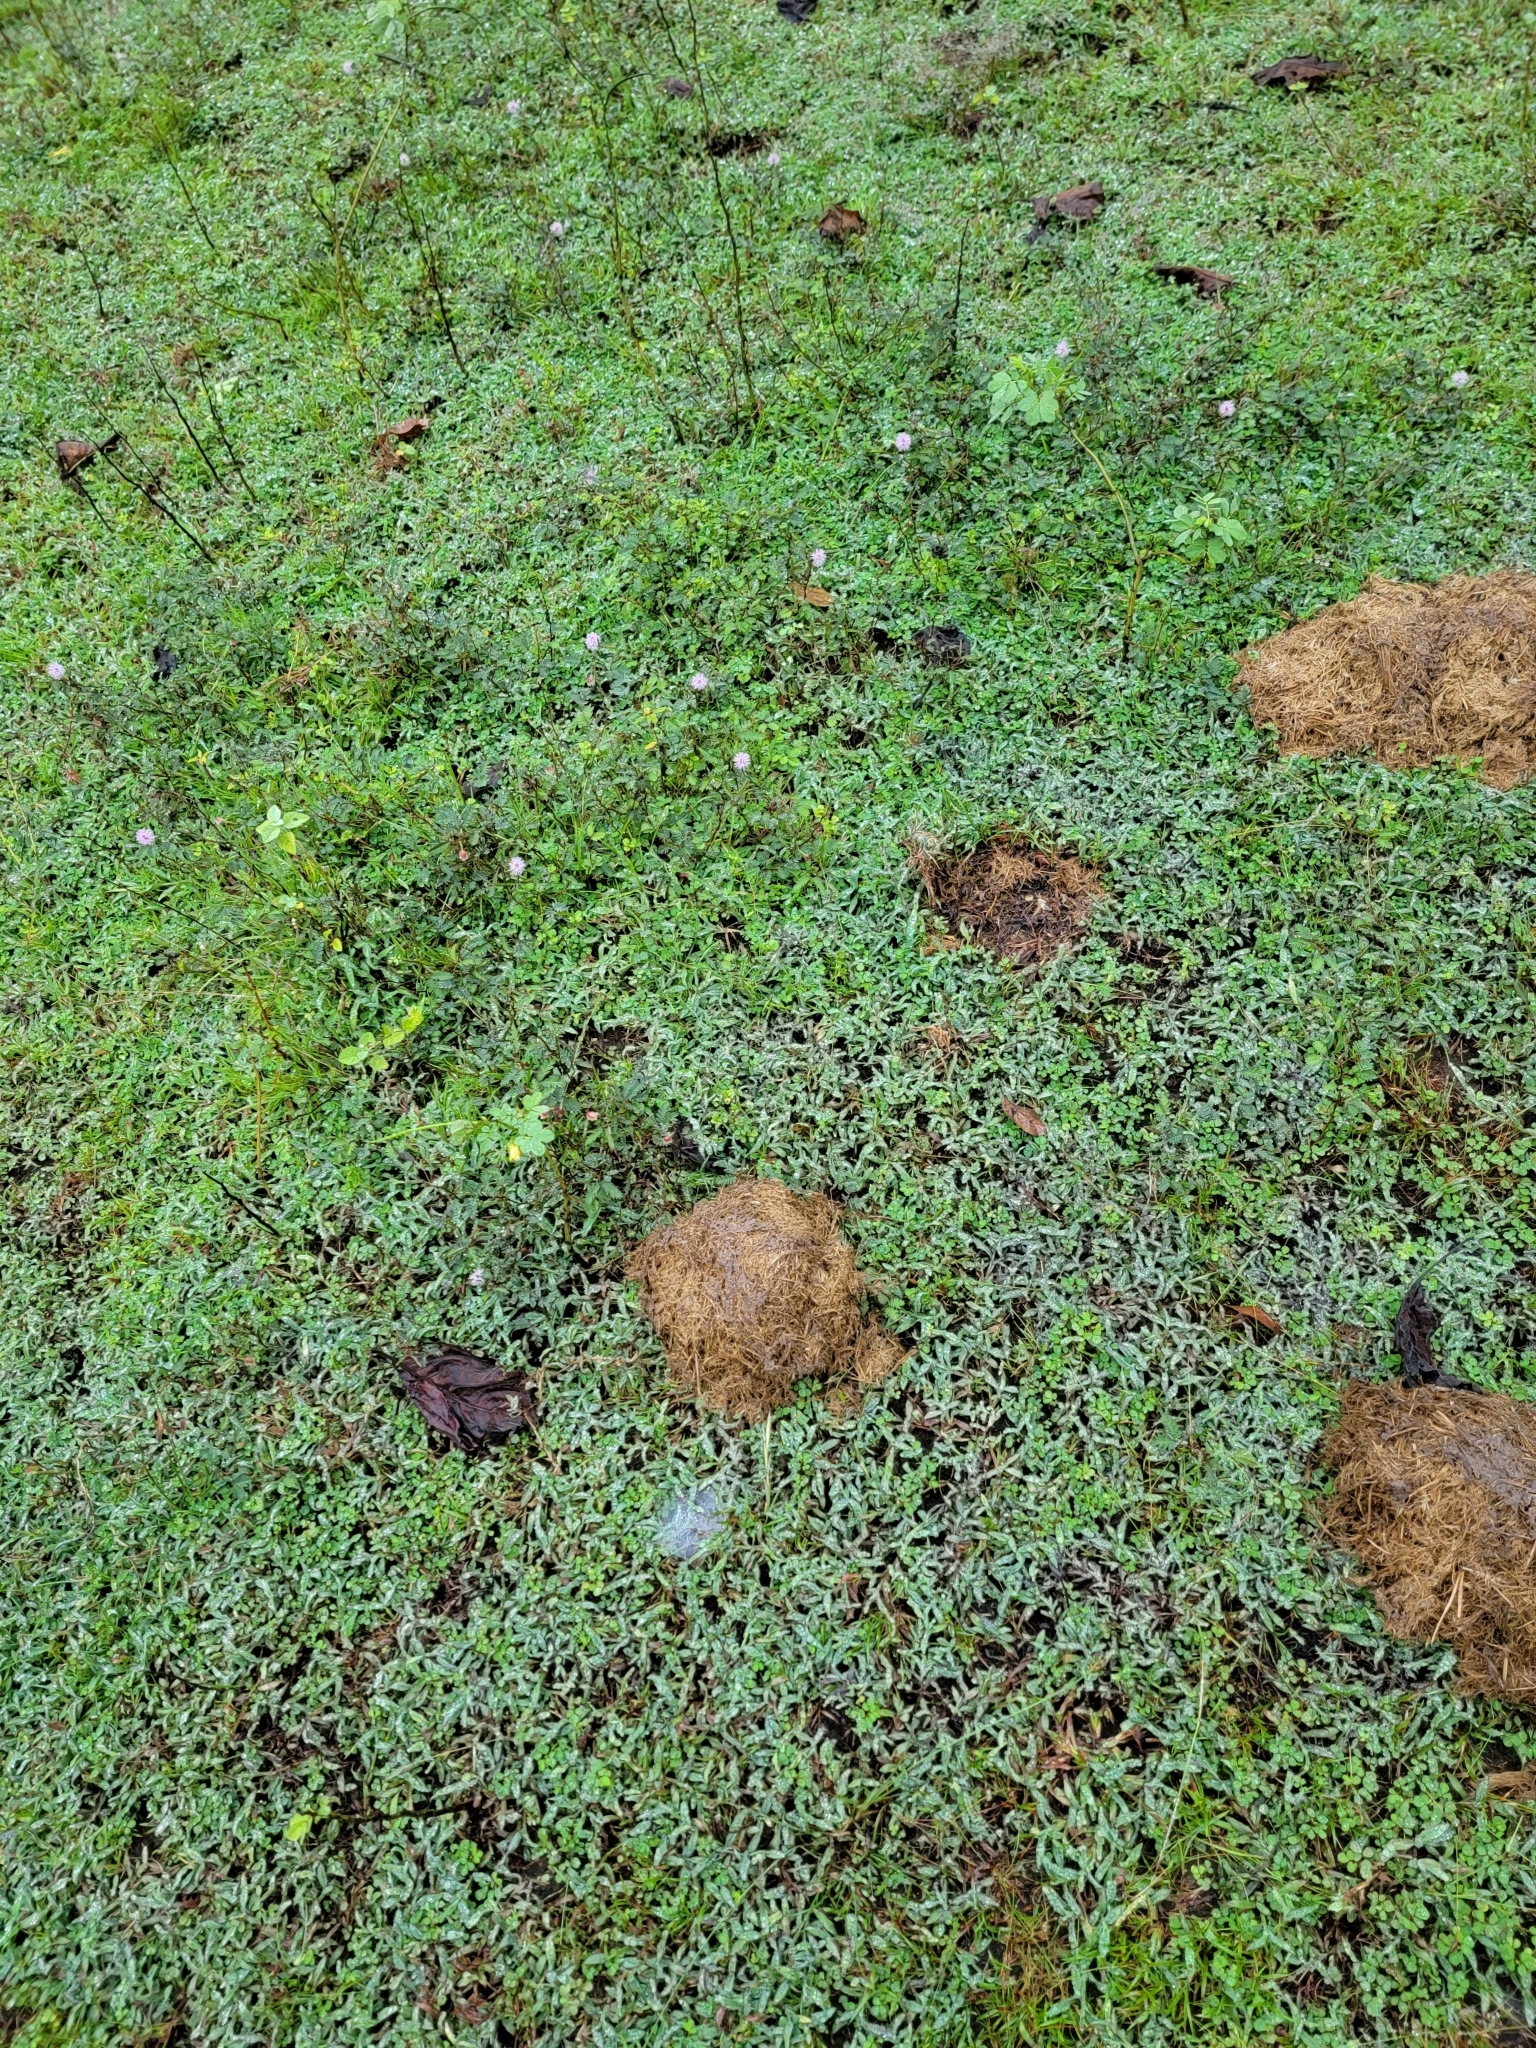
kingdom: Animalia
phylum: Chordata
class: Mammalia
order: Proboscidea
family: Elephantidae
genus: Elephas
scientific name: Elephas maximus
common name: Asian elephant
